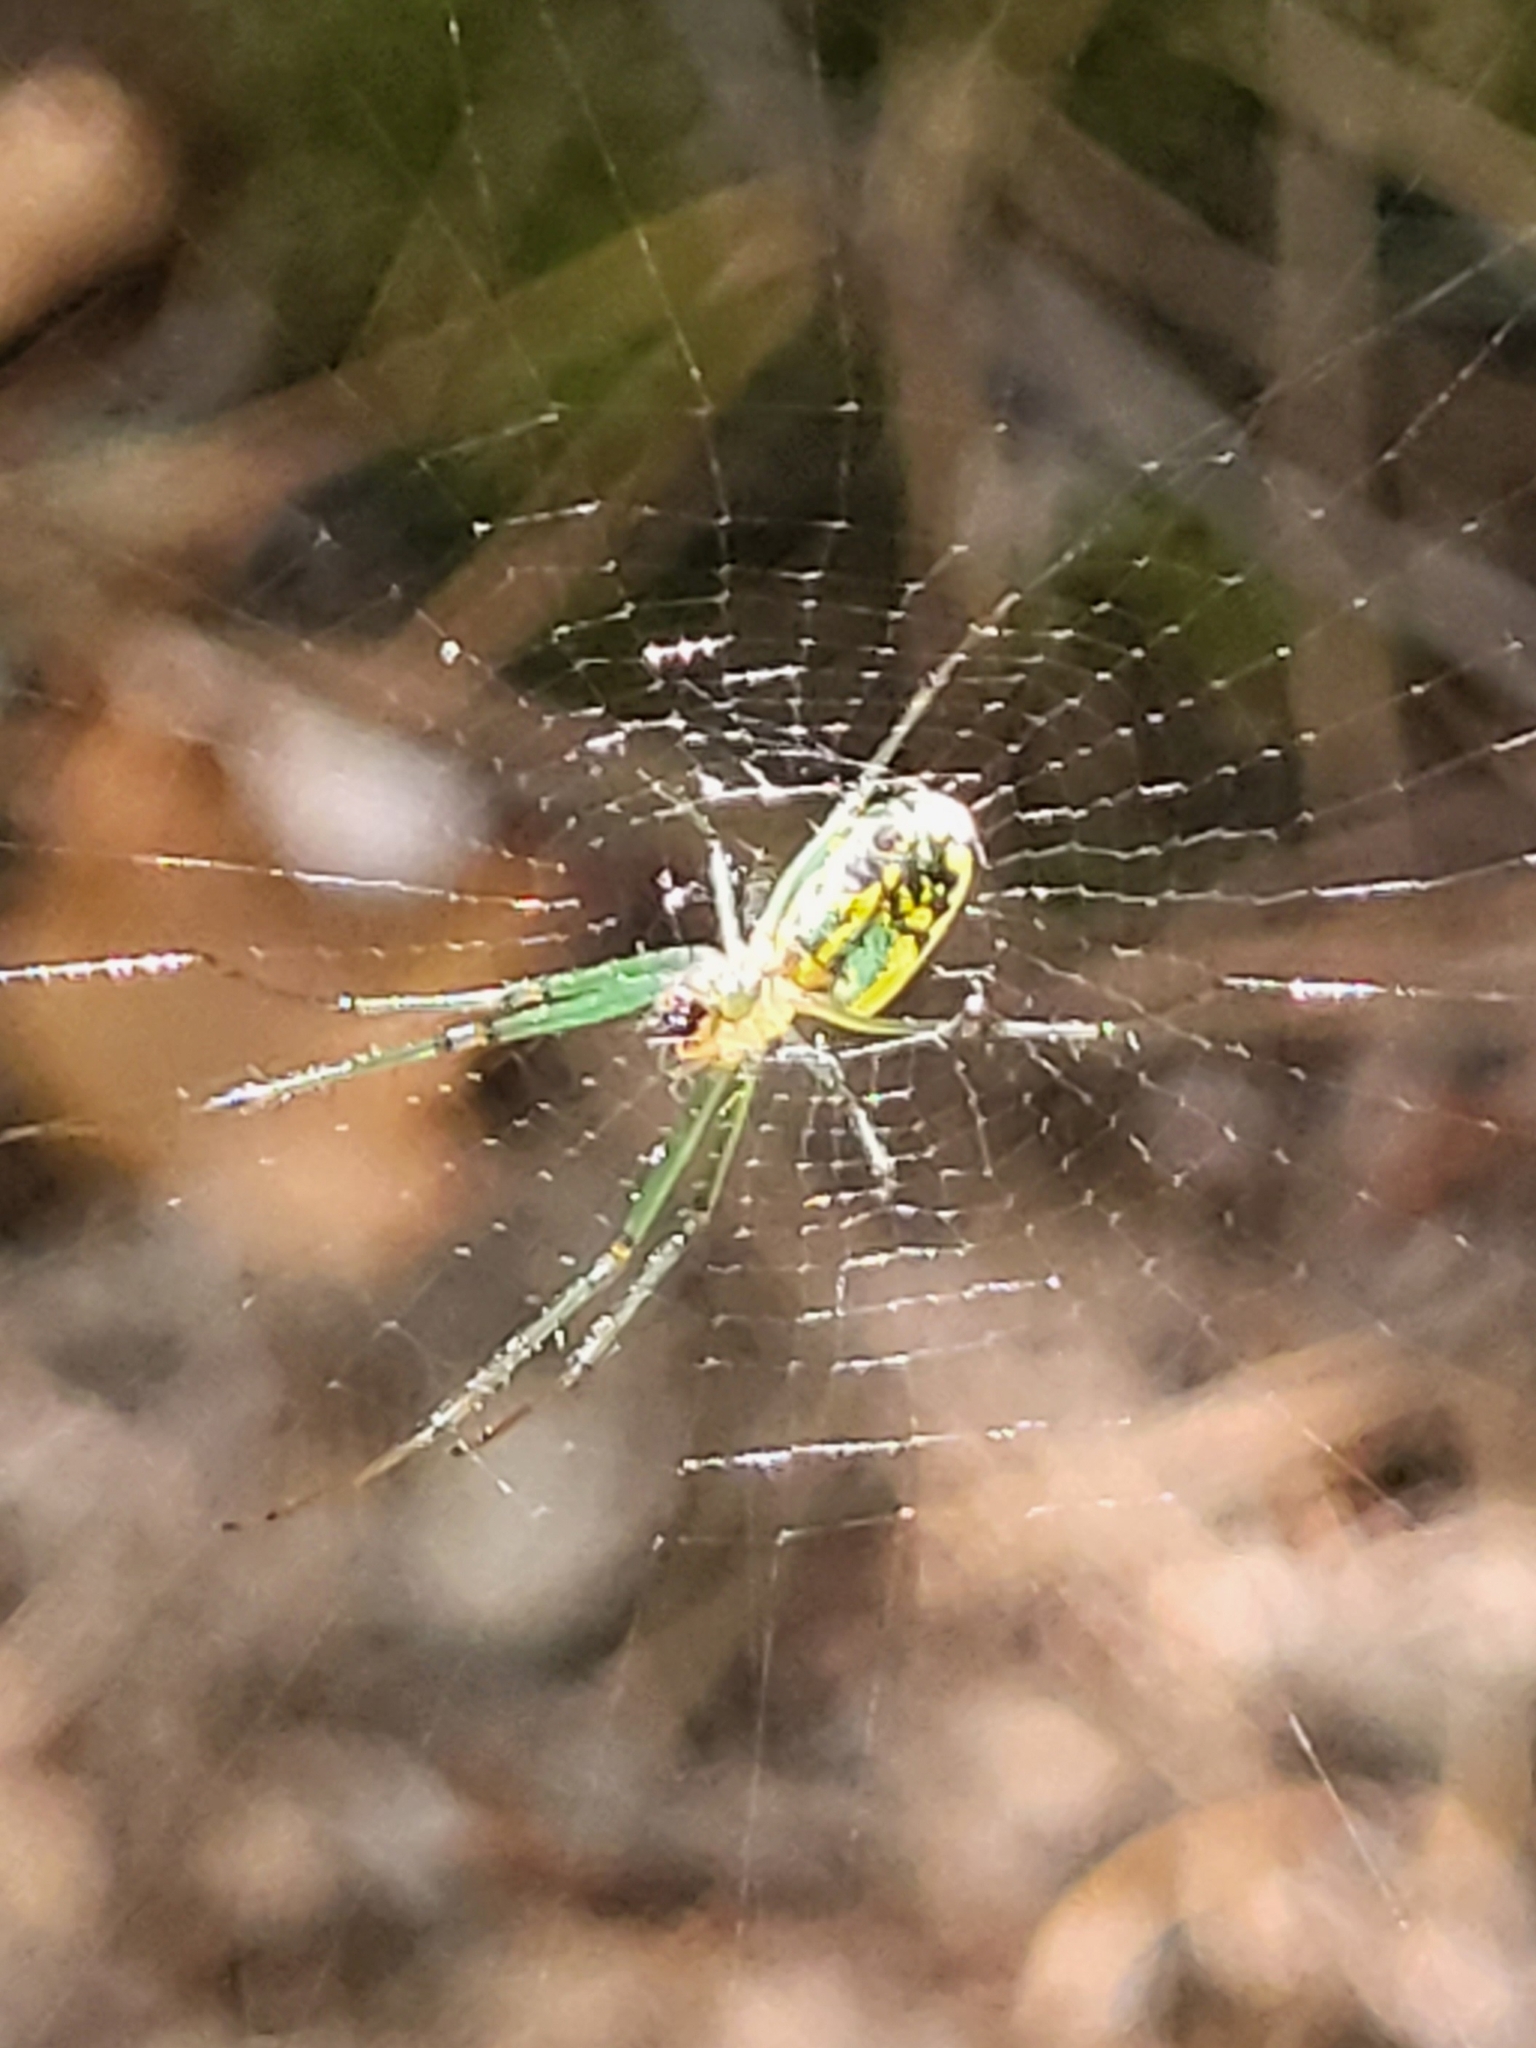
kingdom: Animalia
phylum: Arthropoda
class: Arachnida
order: Araneae
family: Tetragnathidae
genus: Leucauge
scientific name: Leucauge venusta
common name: Longjawed orb weavers
